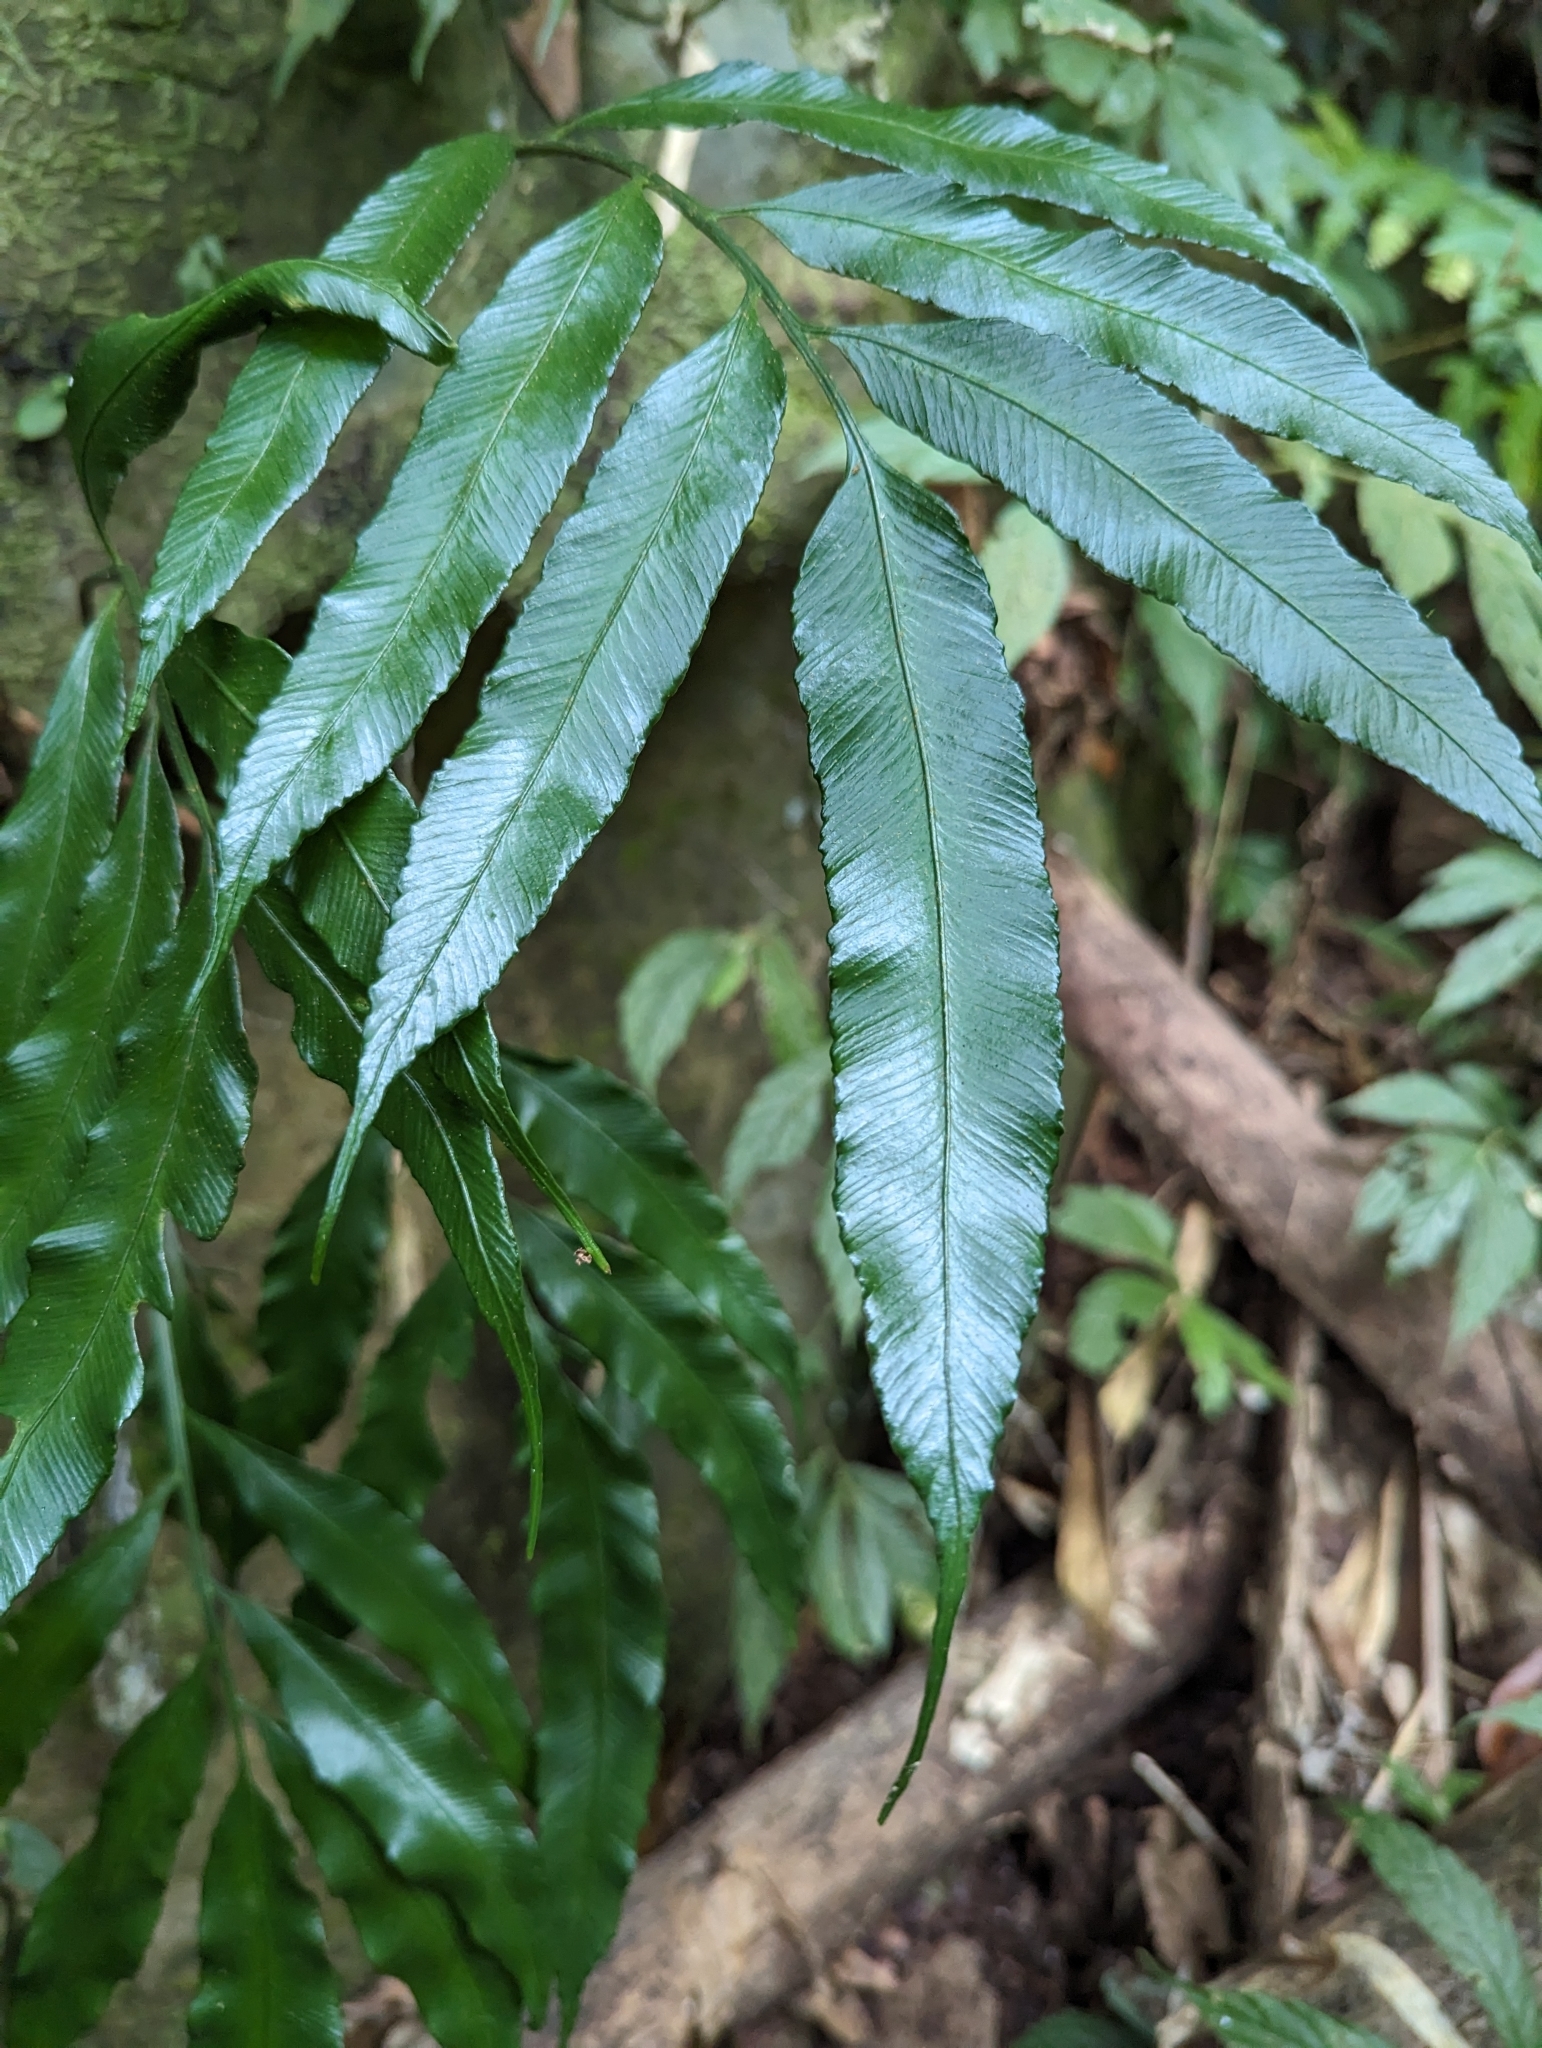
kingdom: Plantae
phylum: Tracheophyta
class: Polypodiopsida
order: Polypodiales
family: Aspleniaceae
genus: Asplenium
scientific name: Asplenium formosae
